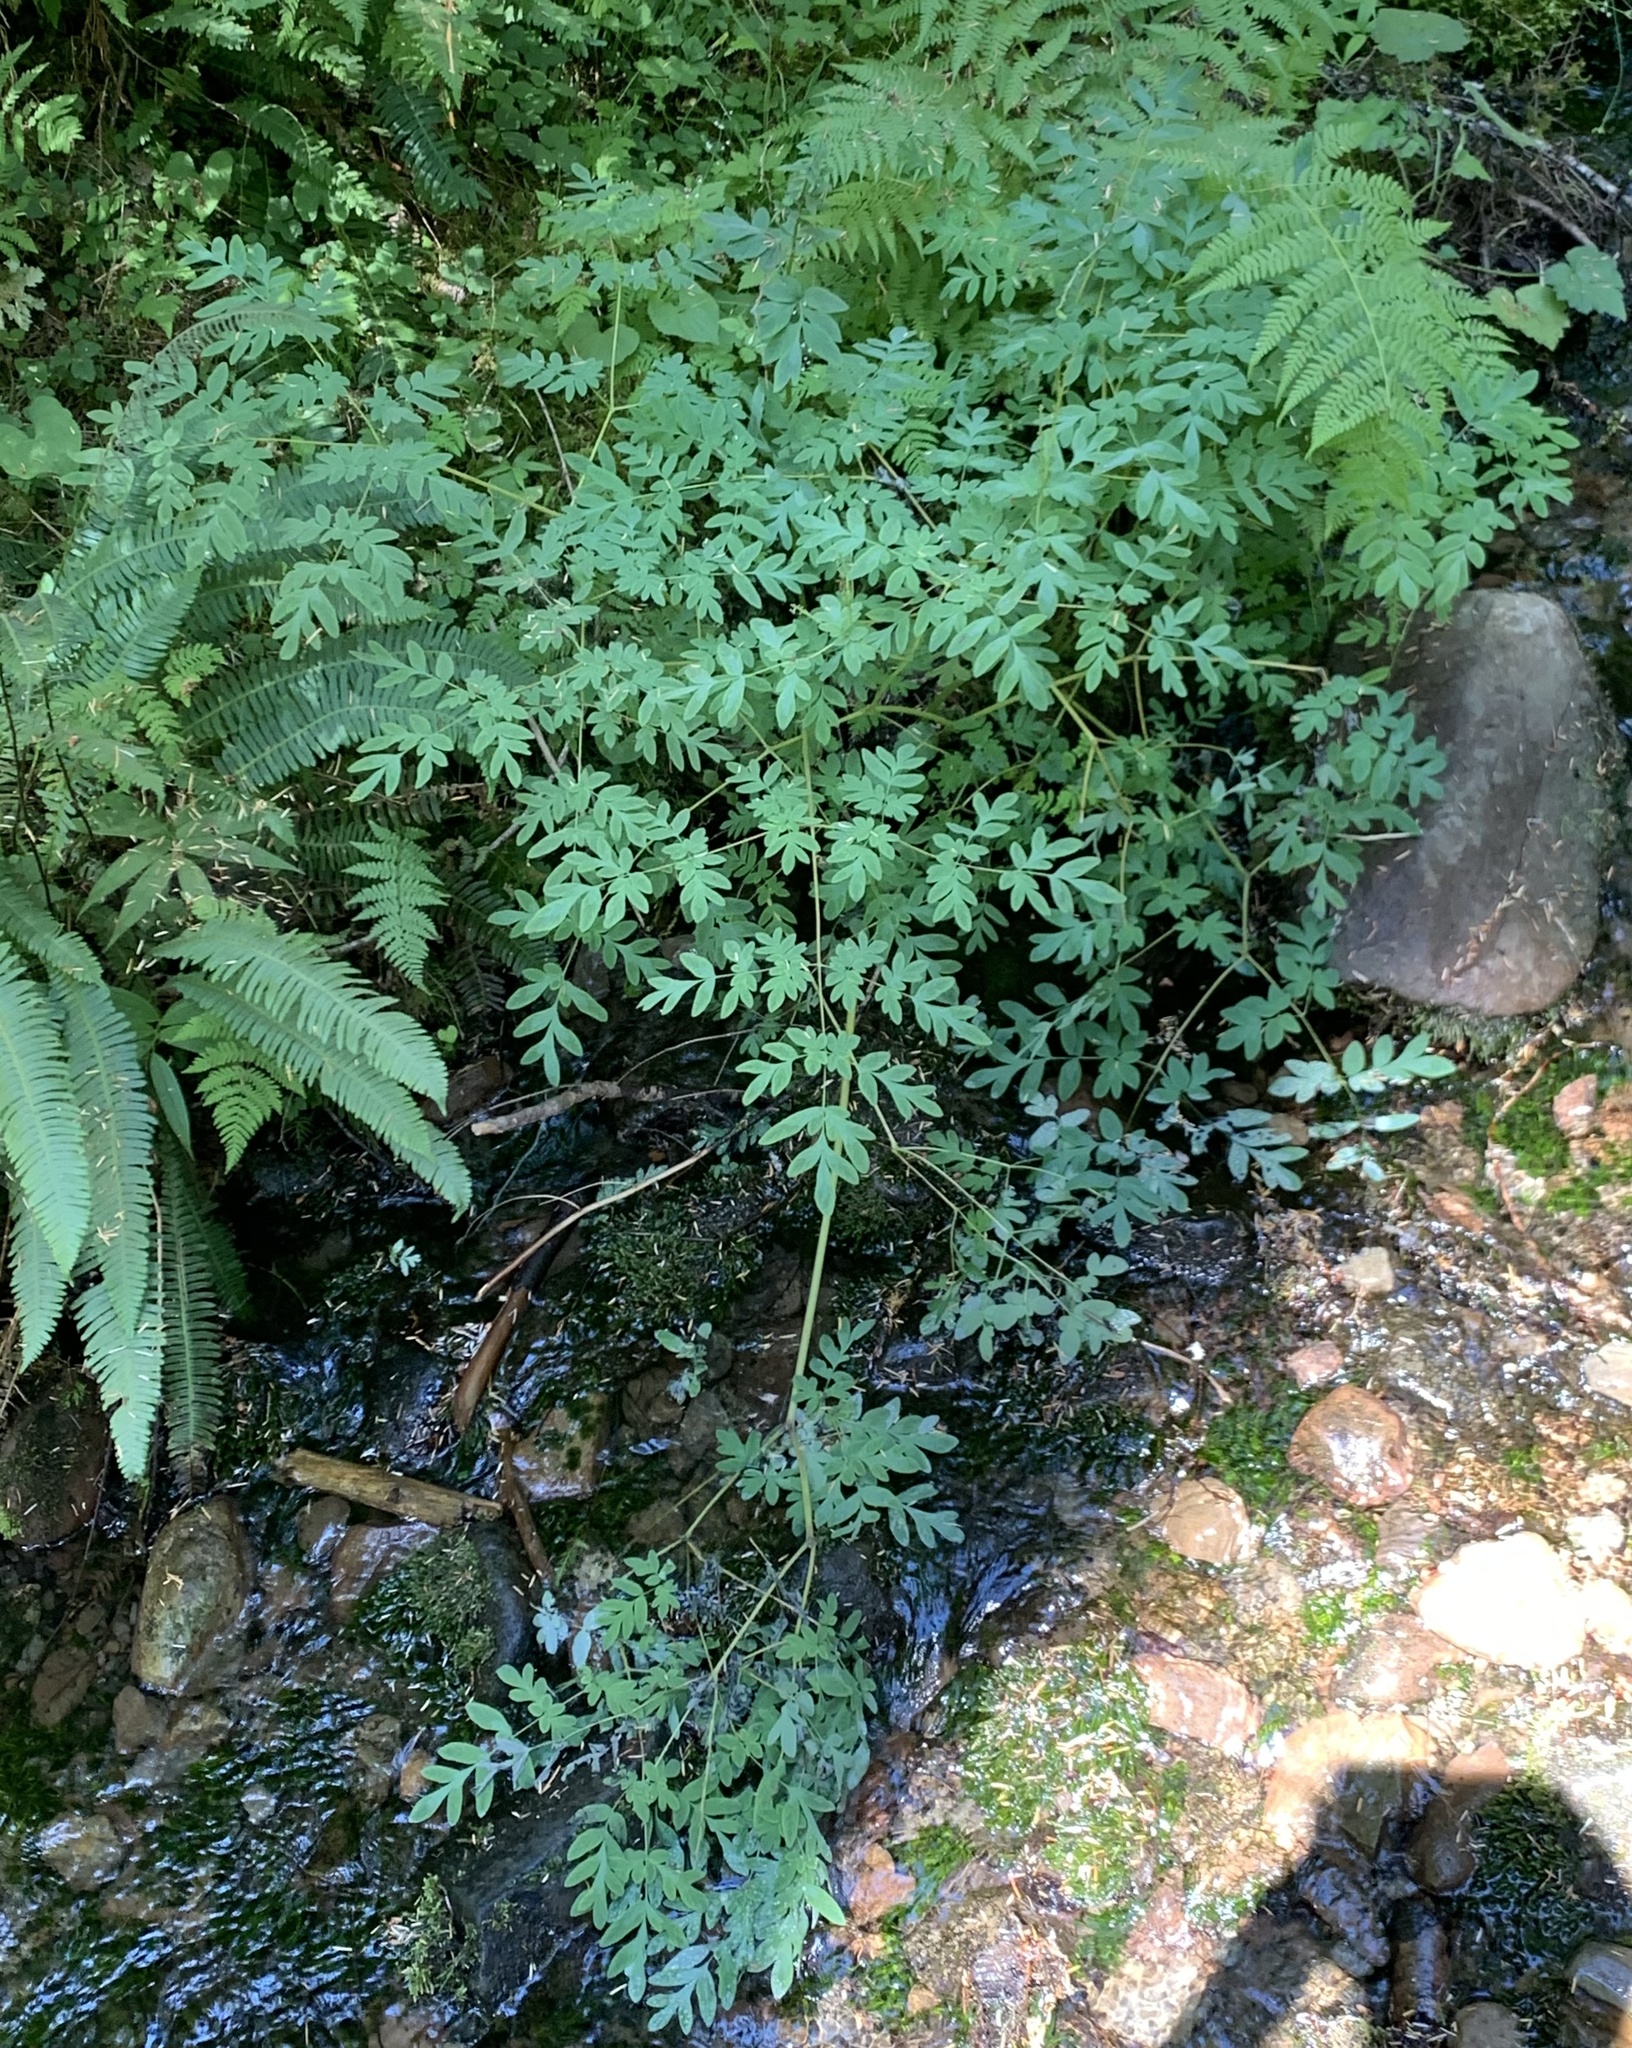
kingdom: Plantae
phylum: Tracheophyta
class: Magnoliopsida
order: Ranunculales
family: Papaveraceae
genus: Corydalis
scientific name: Corydalis scouleri
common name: Scouler's corydalis
